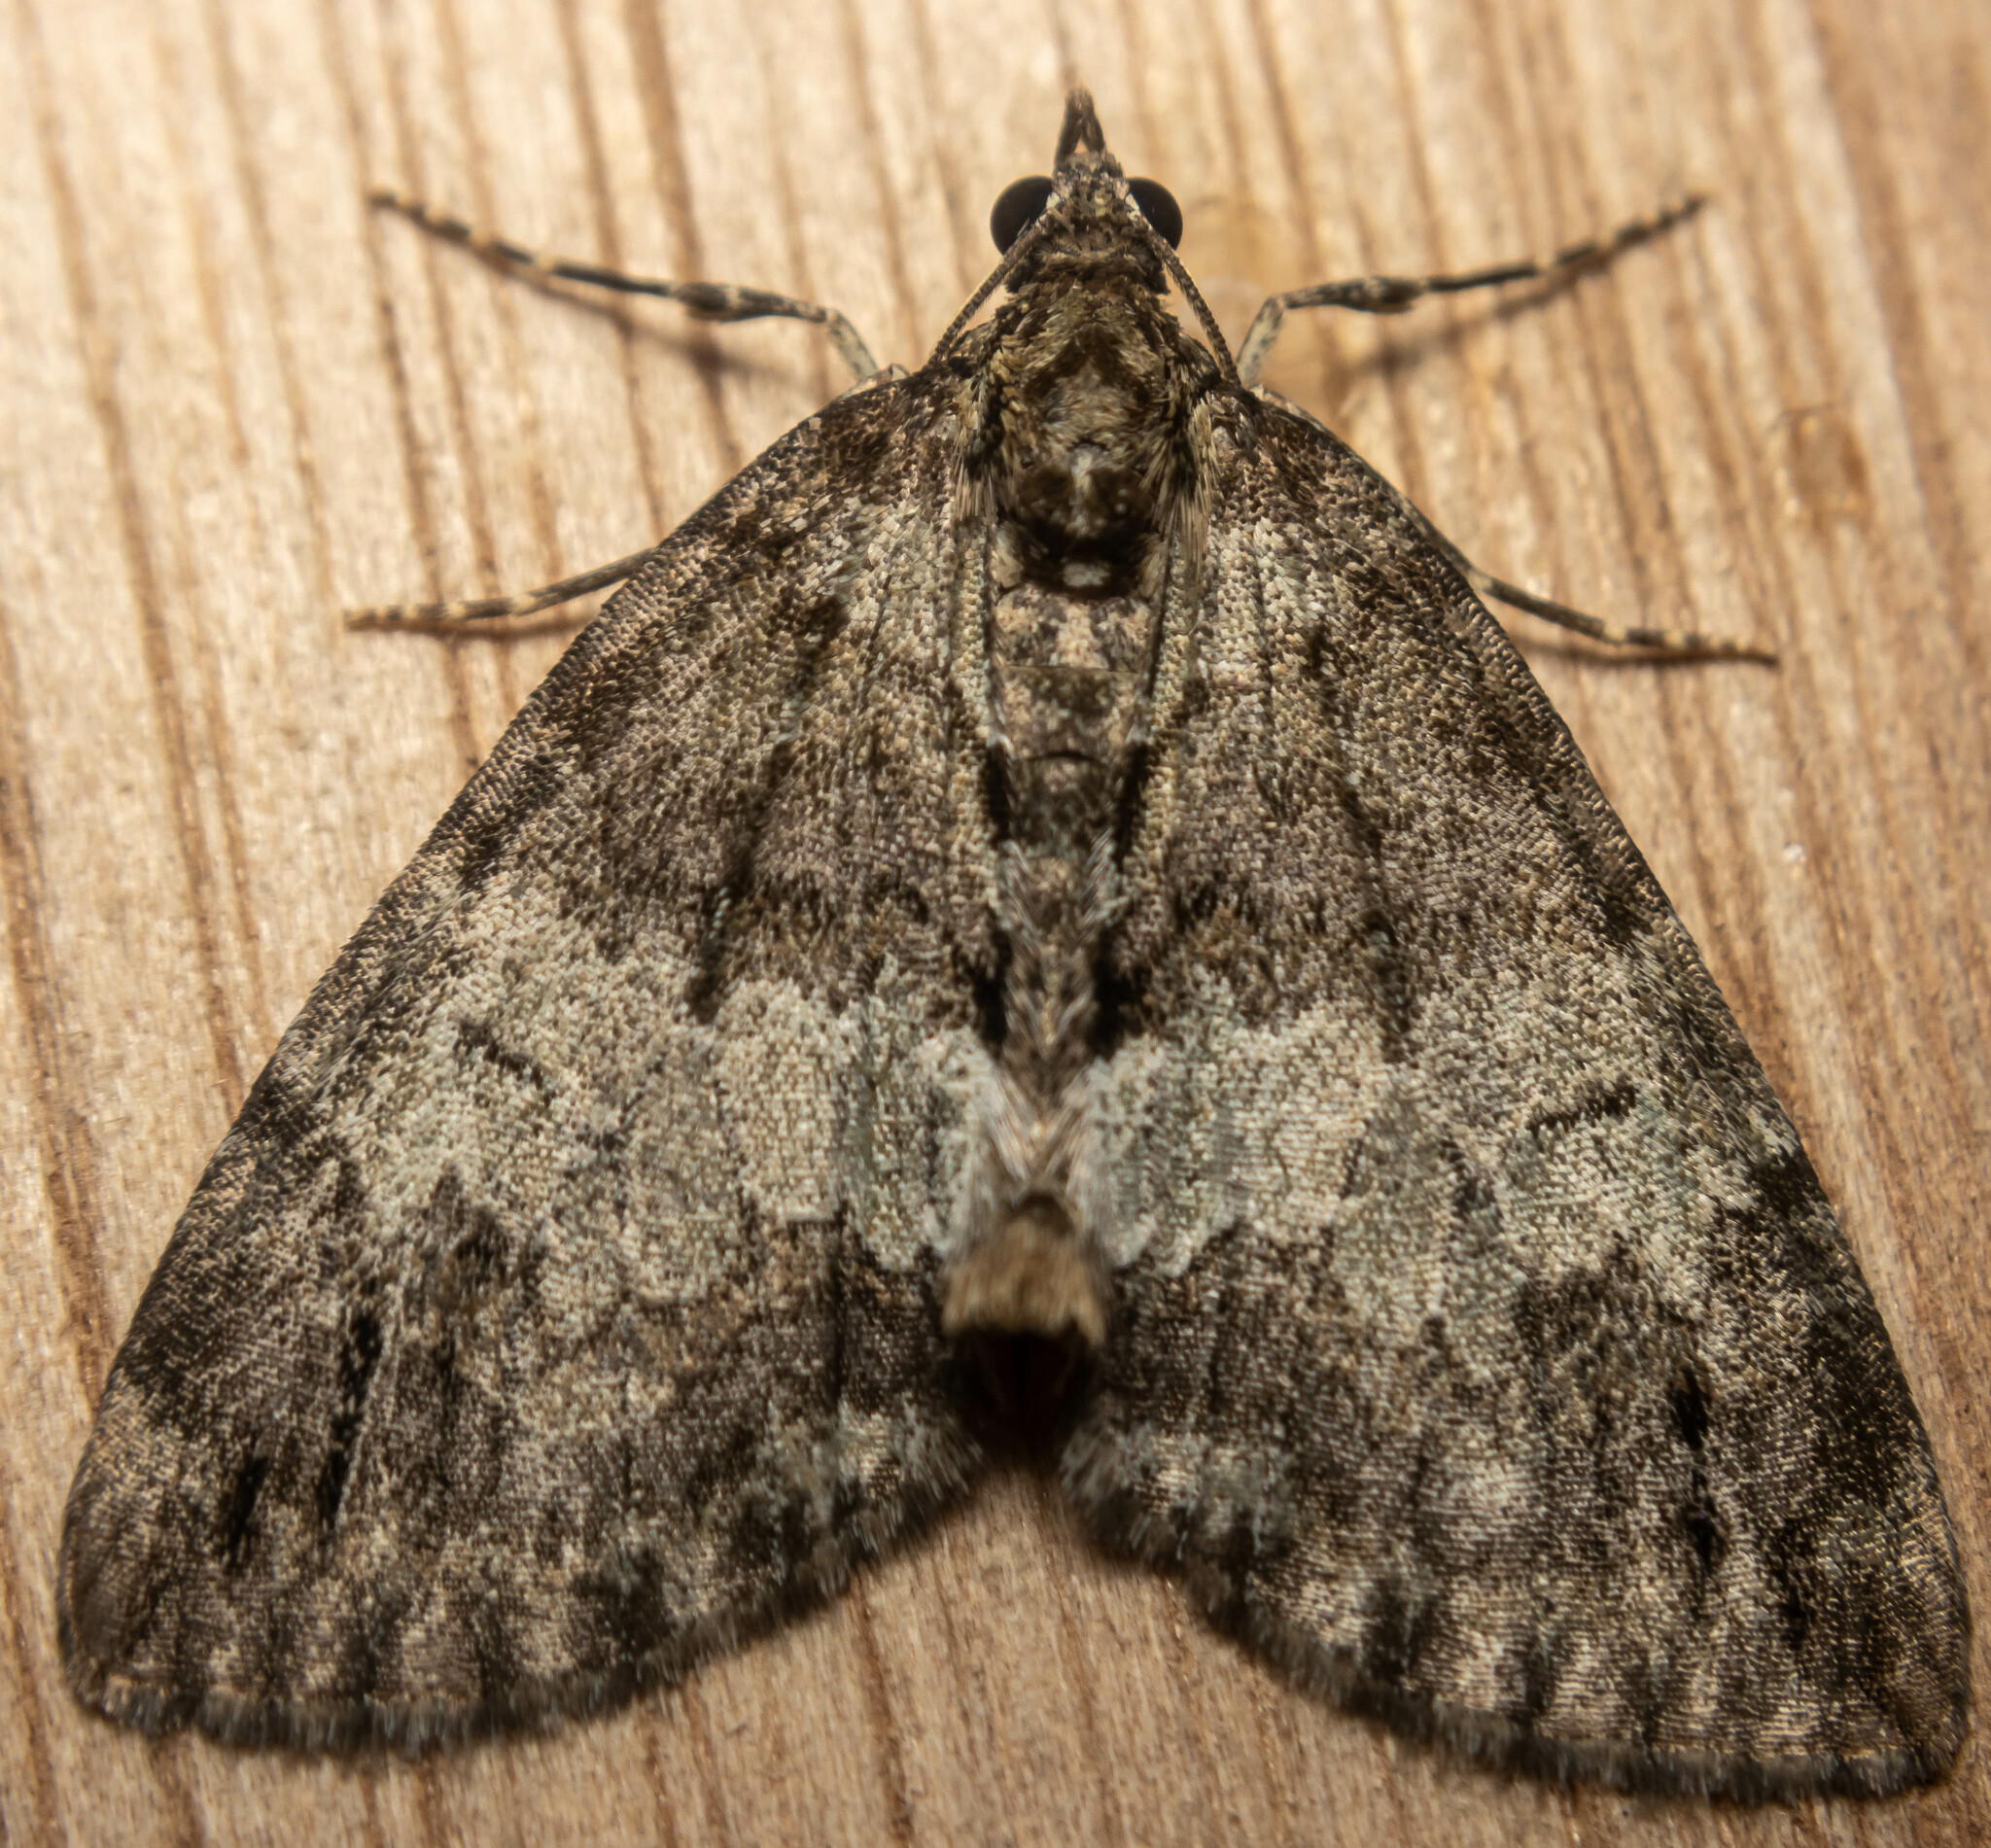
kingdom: Animalia
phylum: Arthropoda
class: Insecta
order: Lepidoptera
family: Geometridae
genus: Hydriomena
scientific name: Hydriomena impluviata
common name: May highflyer
